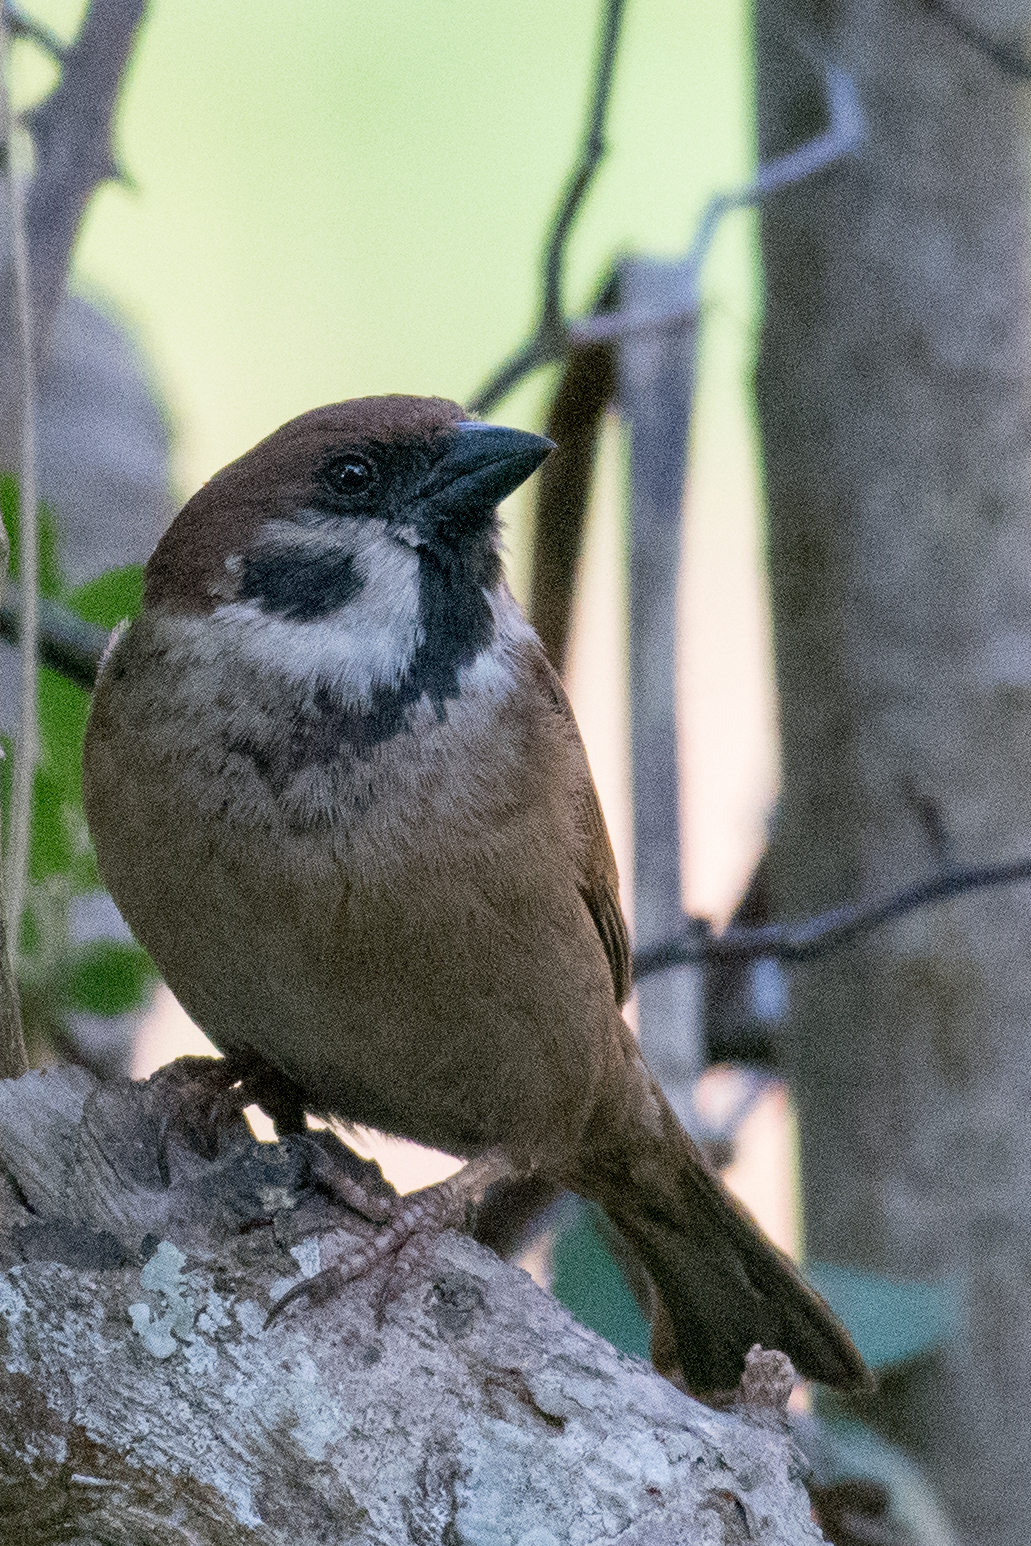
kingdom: Animalia
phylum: Chordata
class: Aves
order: Passeriformes
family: Passeridae
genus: Passer
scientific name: Passer montanus
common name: Eurasian tree sparrow
